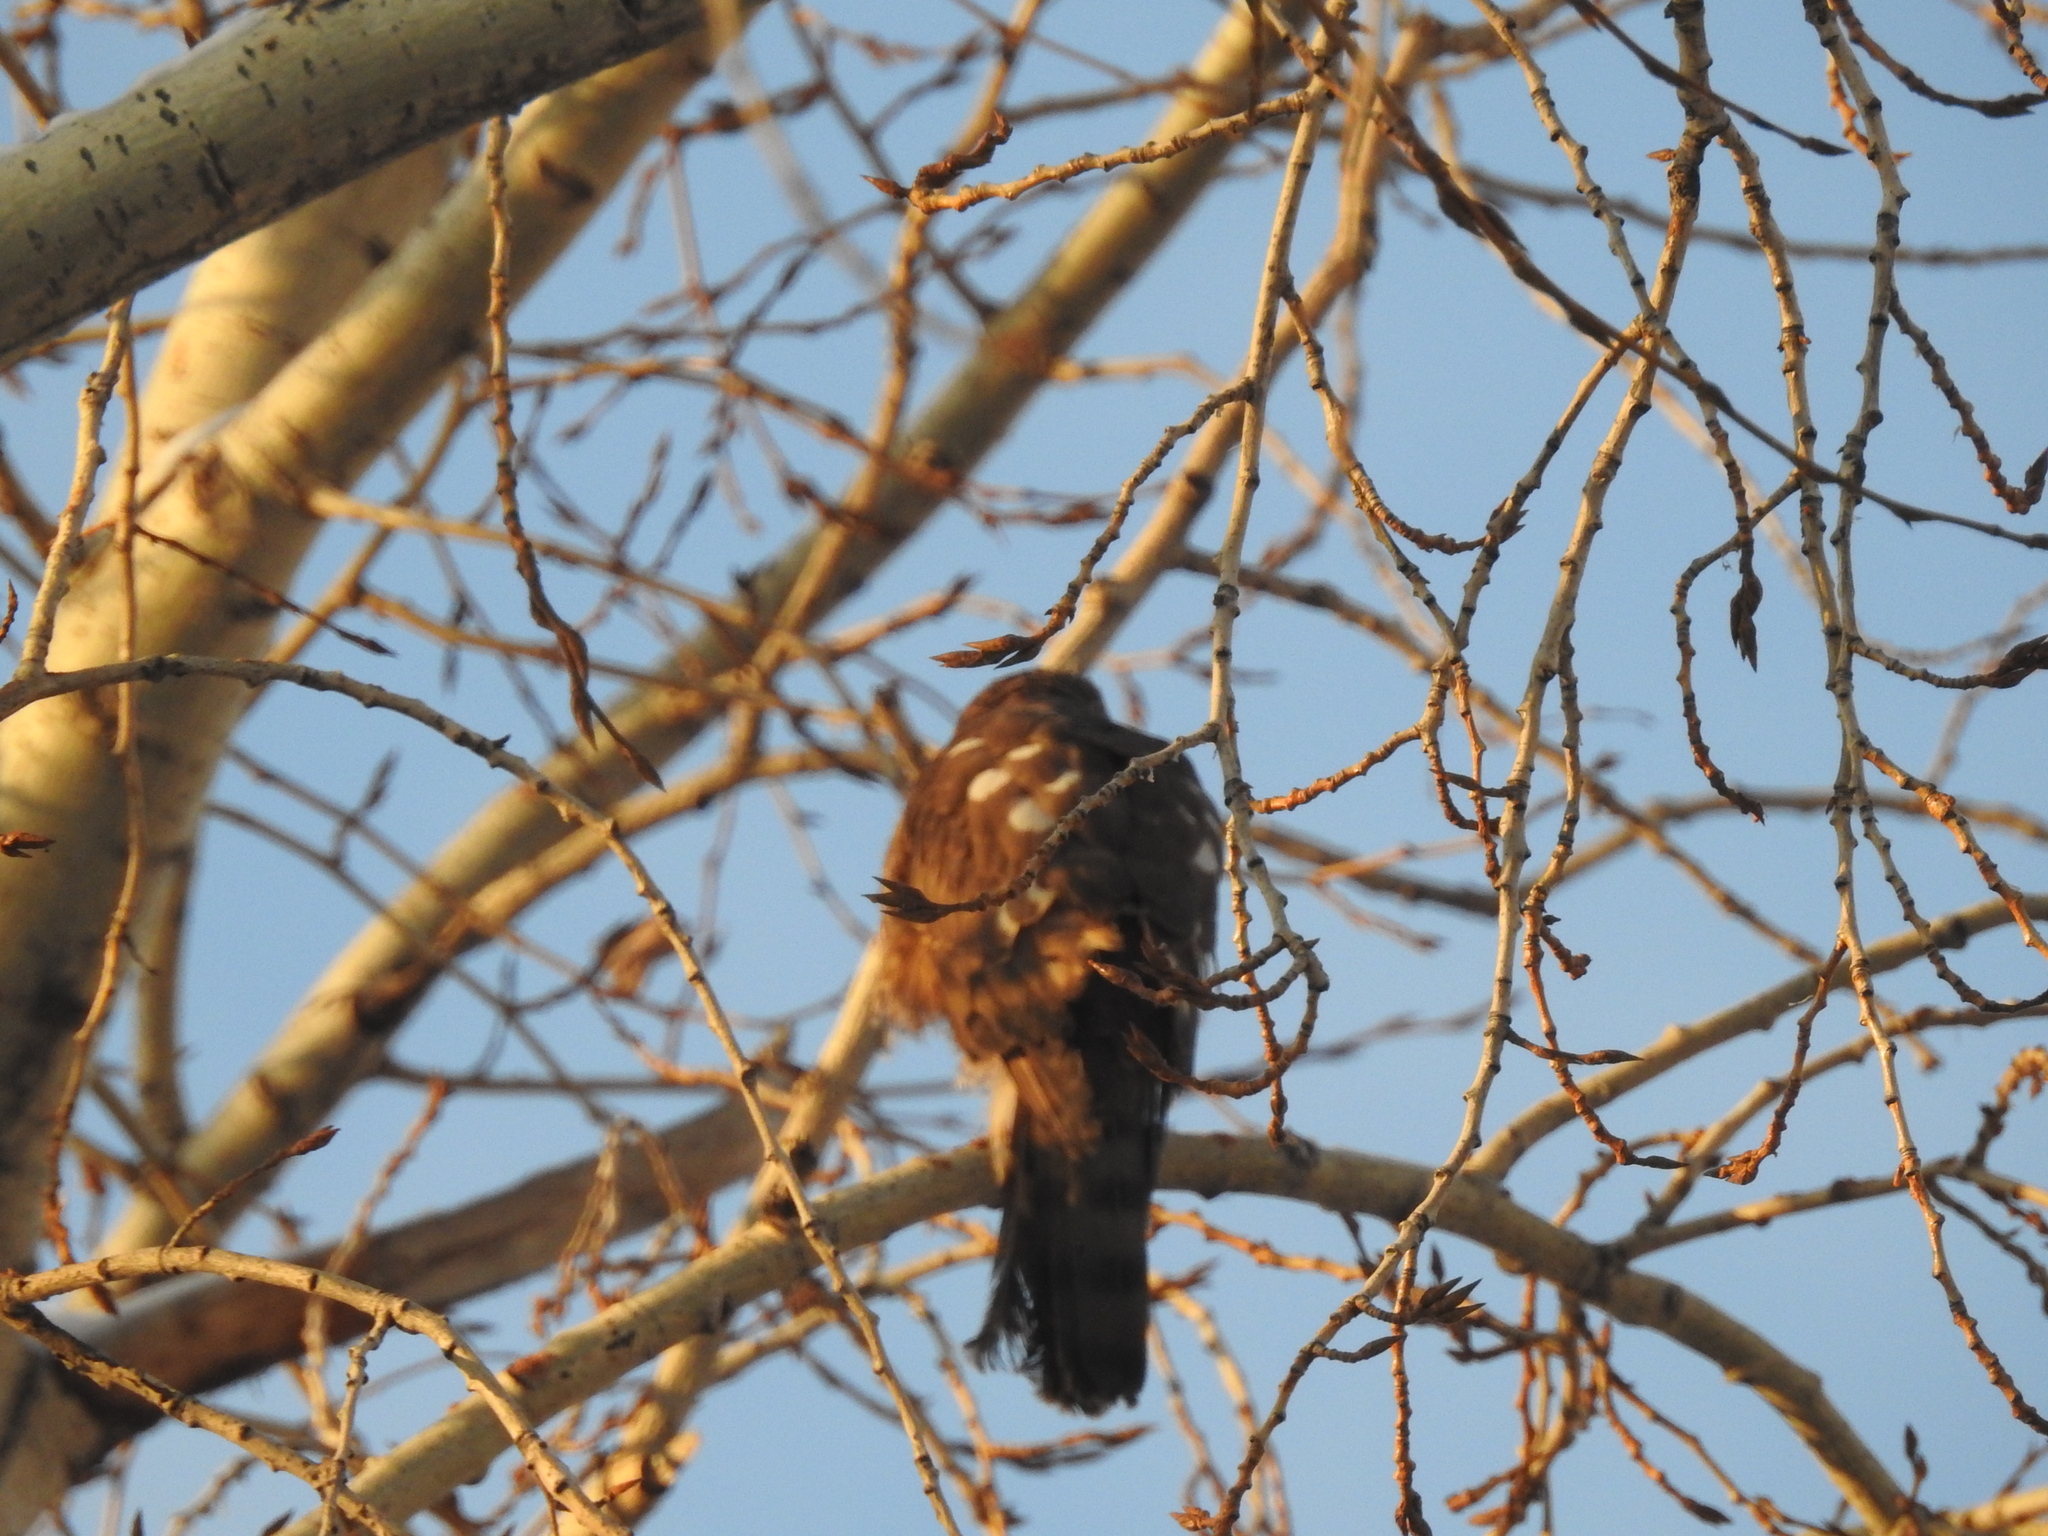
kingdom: Animalia
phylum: Chordata
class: Aves
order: Accipitriformes
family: Accipitridae
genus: Accipiter
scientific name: Accipiter nisus
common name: Eurasian sparrowhawk
